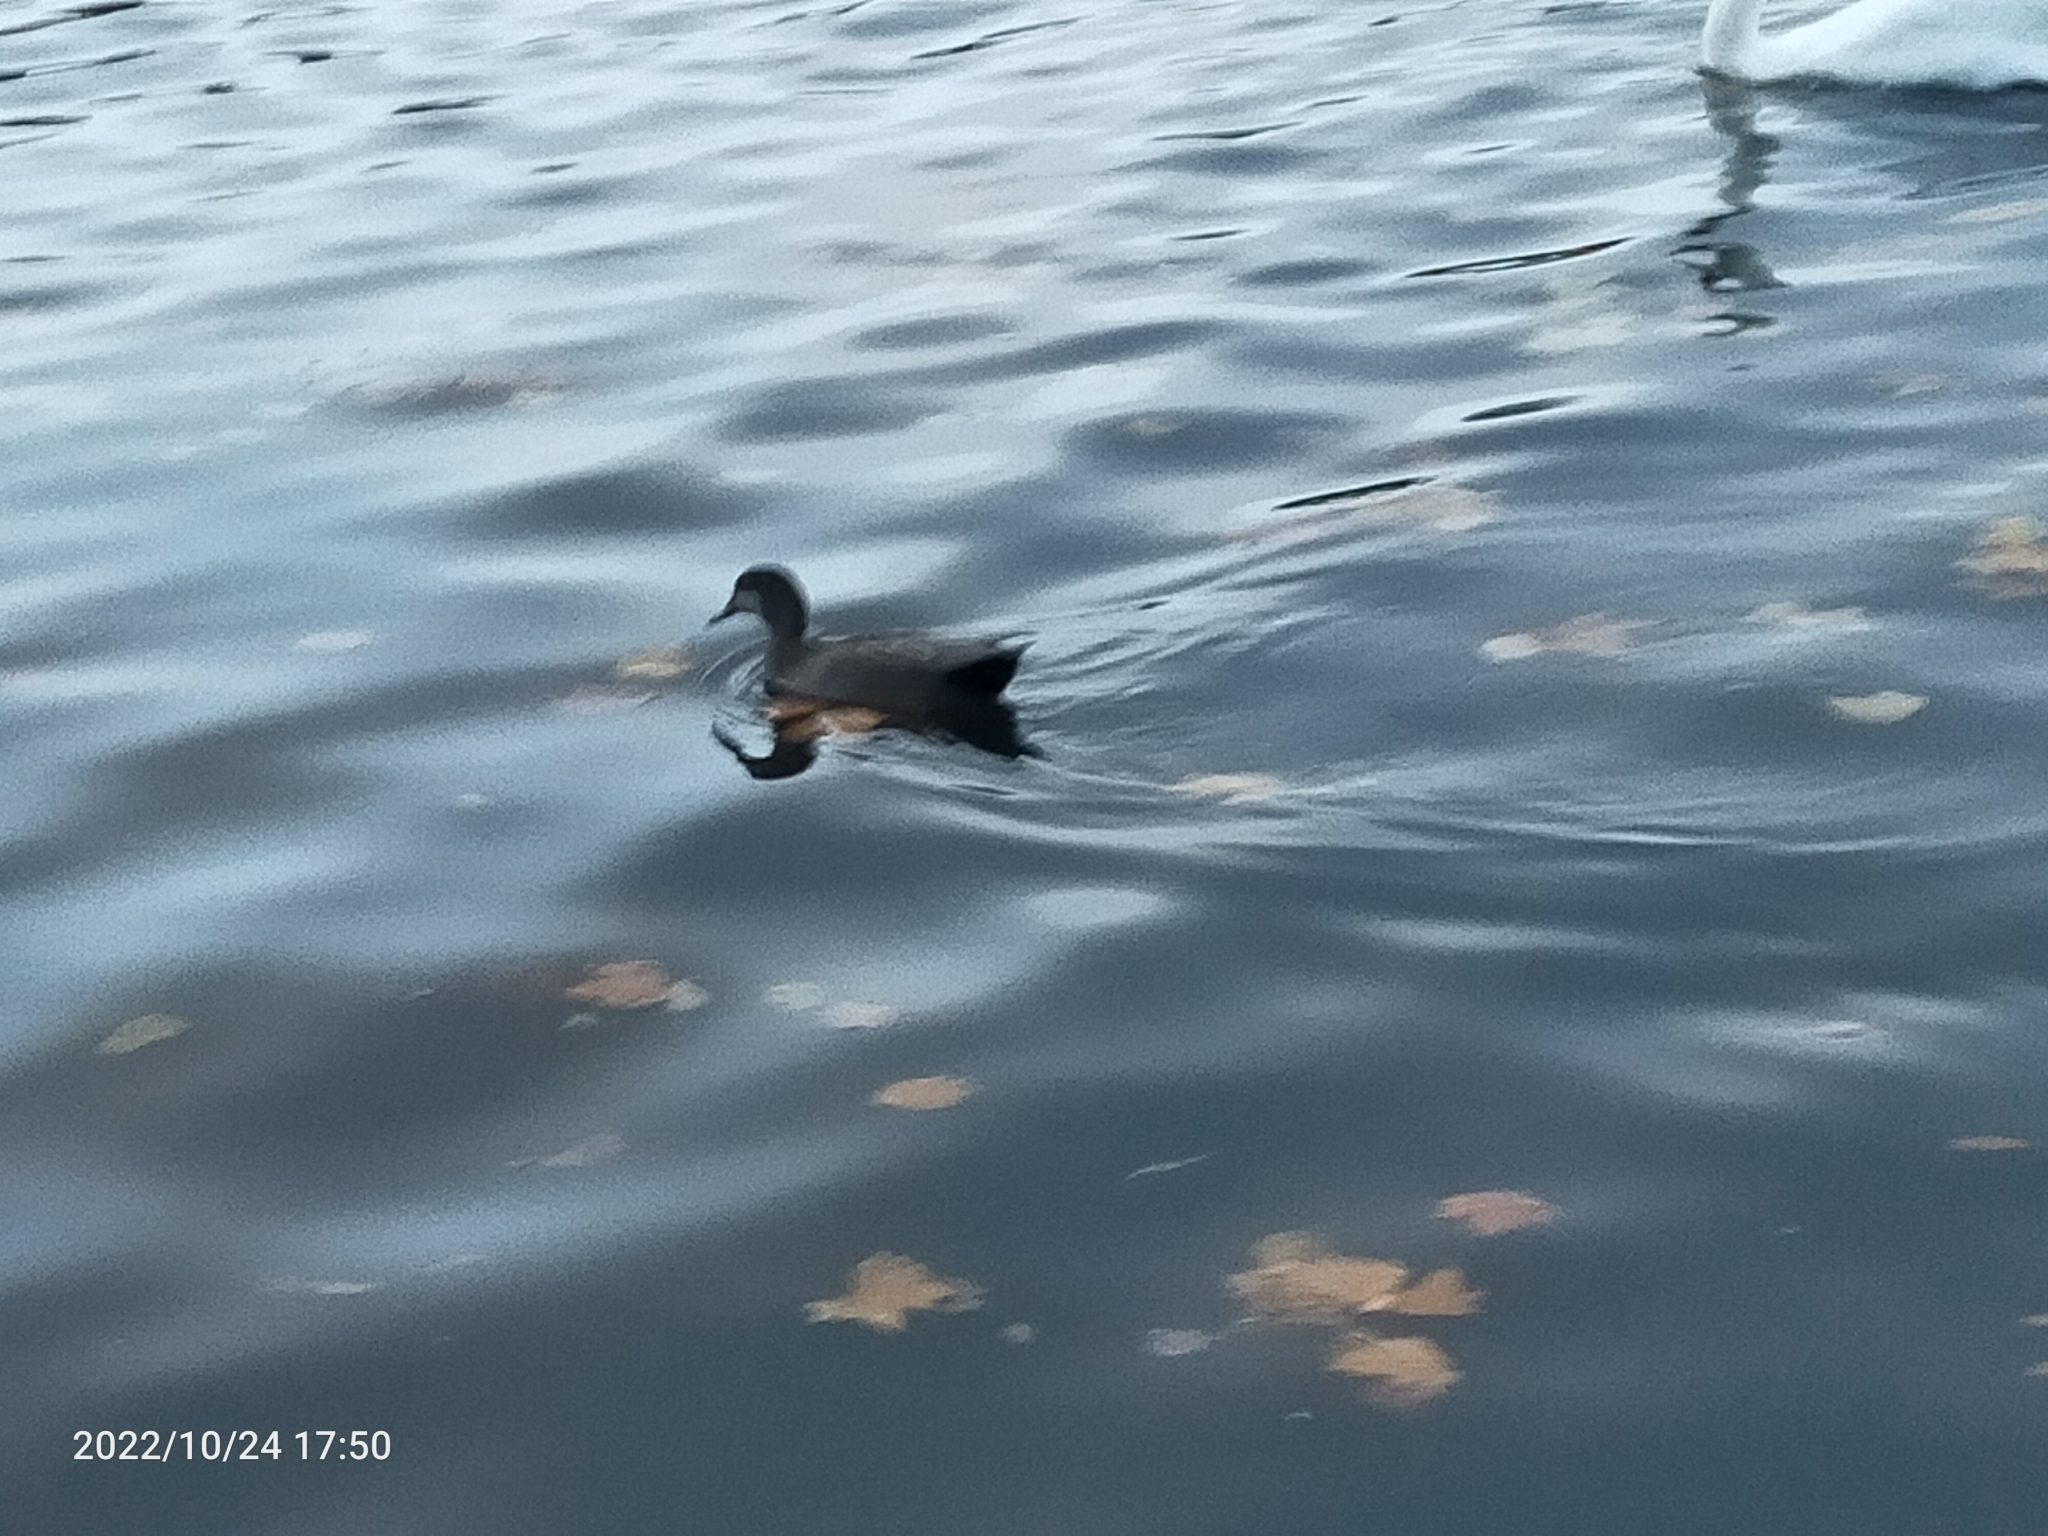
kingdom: Animalia
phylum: Chordata
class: Aves
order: Anseriformes
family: Anatidae
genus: Mareca
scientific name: Mareca strepera
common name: Gadwall
